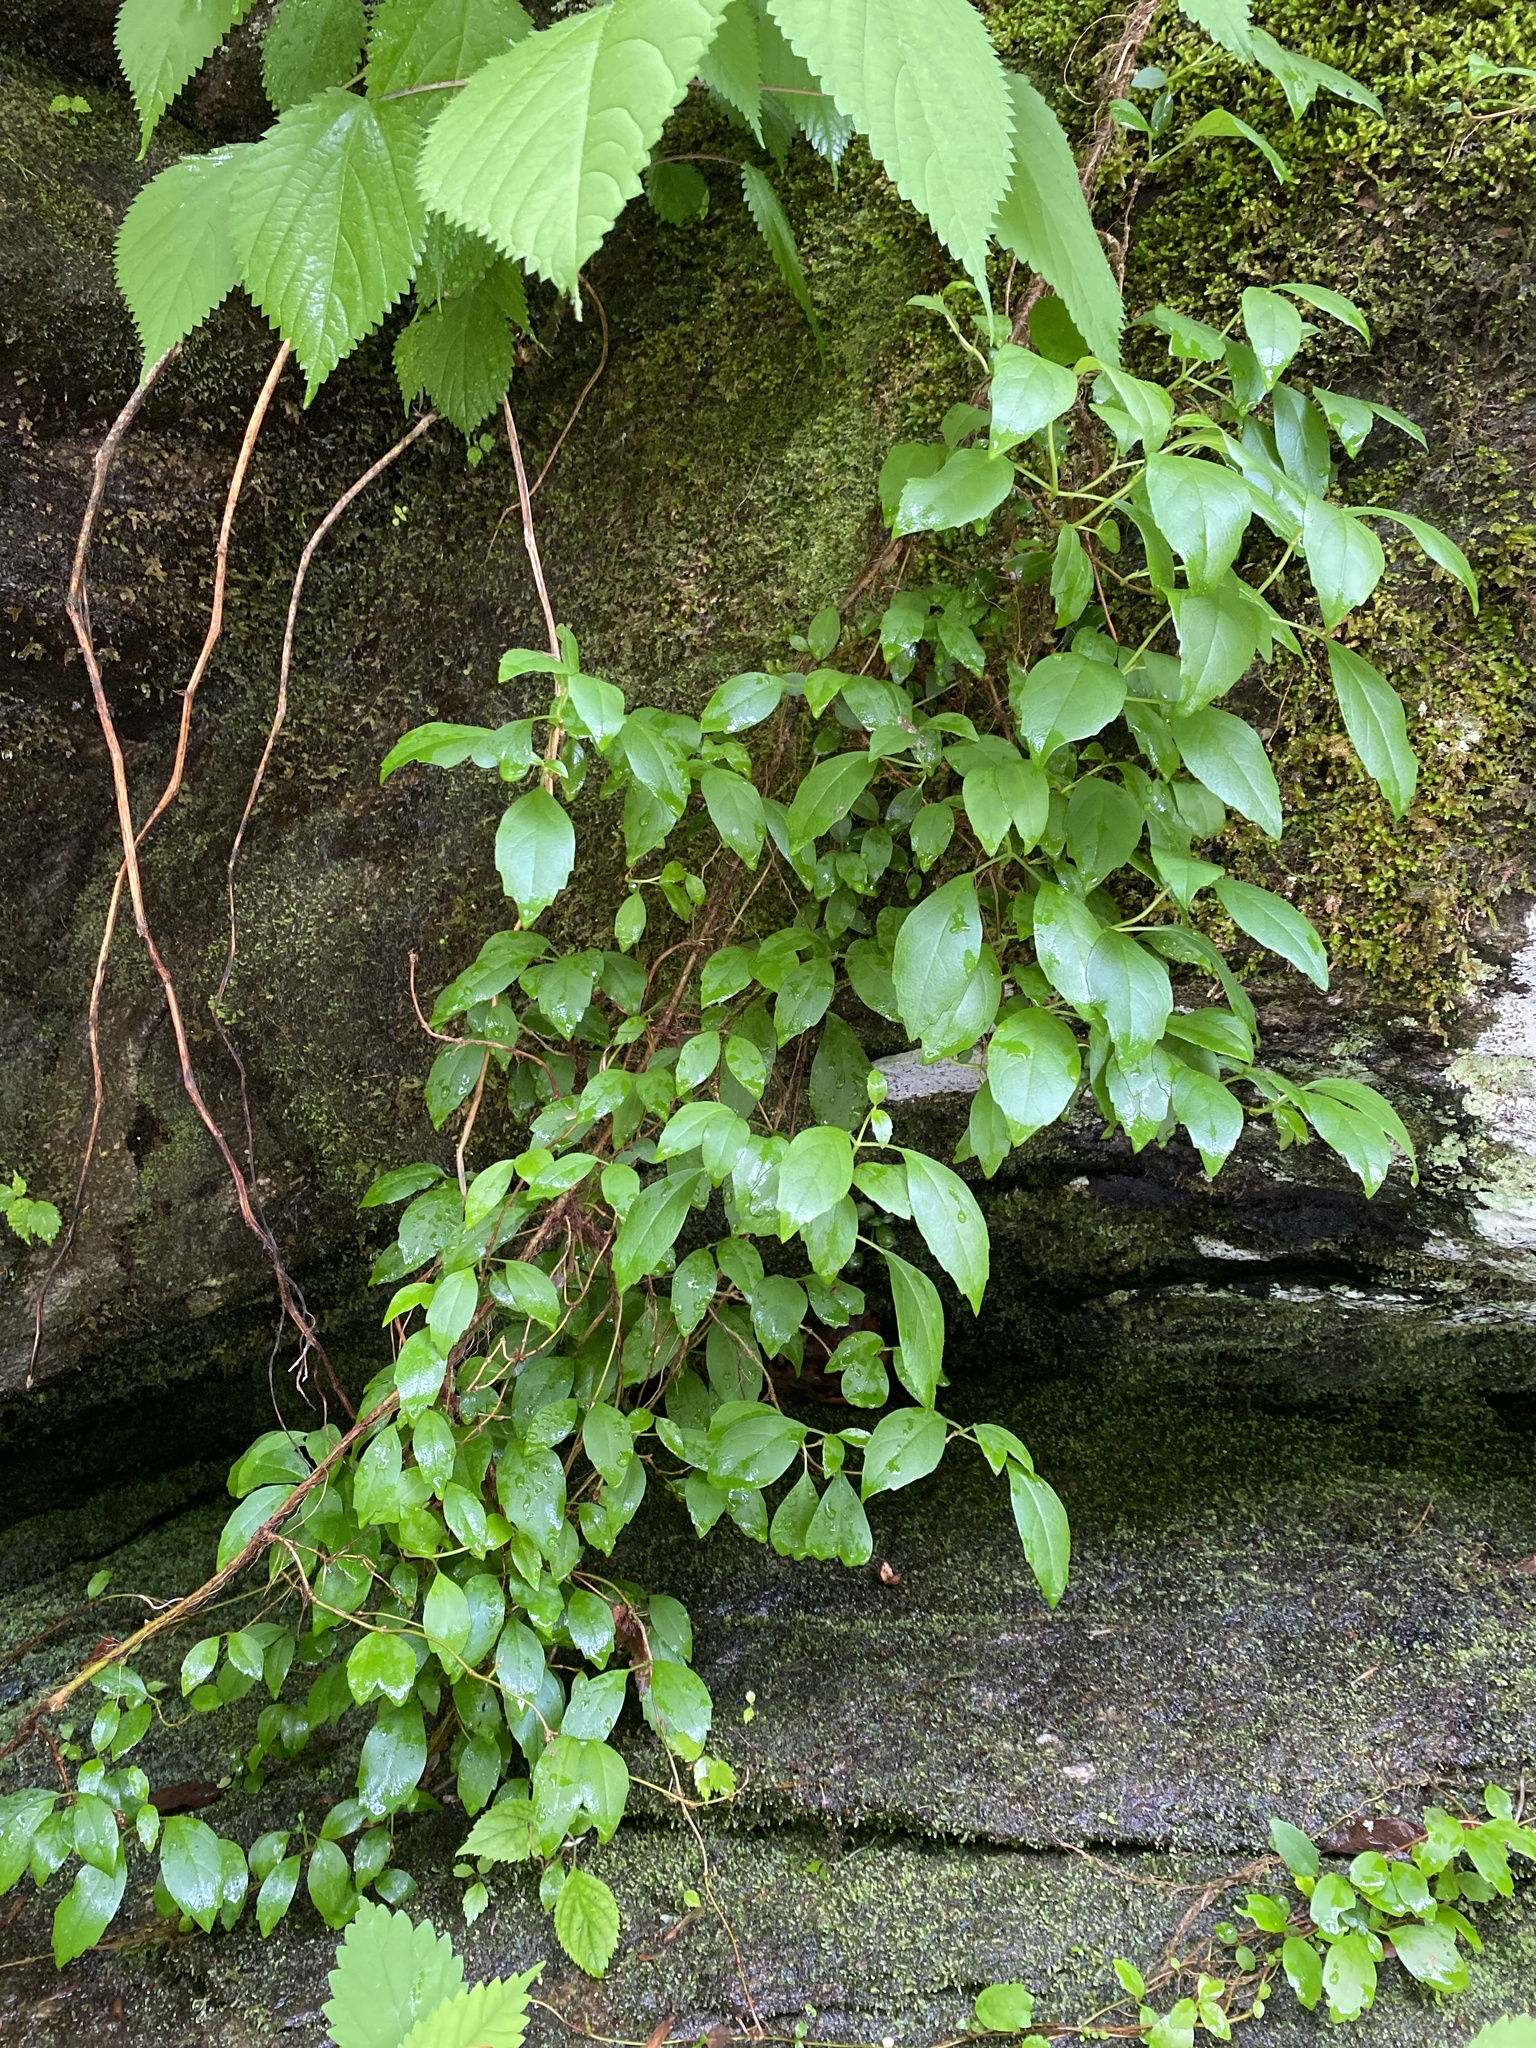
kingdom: Plantae
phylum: Tracheophyta
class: Magnoliopsida
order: Cornales
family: Hydrangeaceae
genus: Hydrangea
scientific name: Hydrangea barbara
